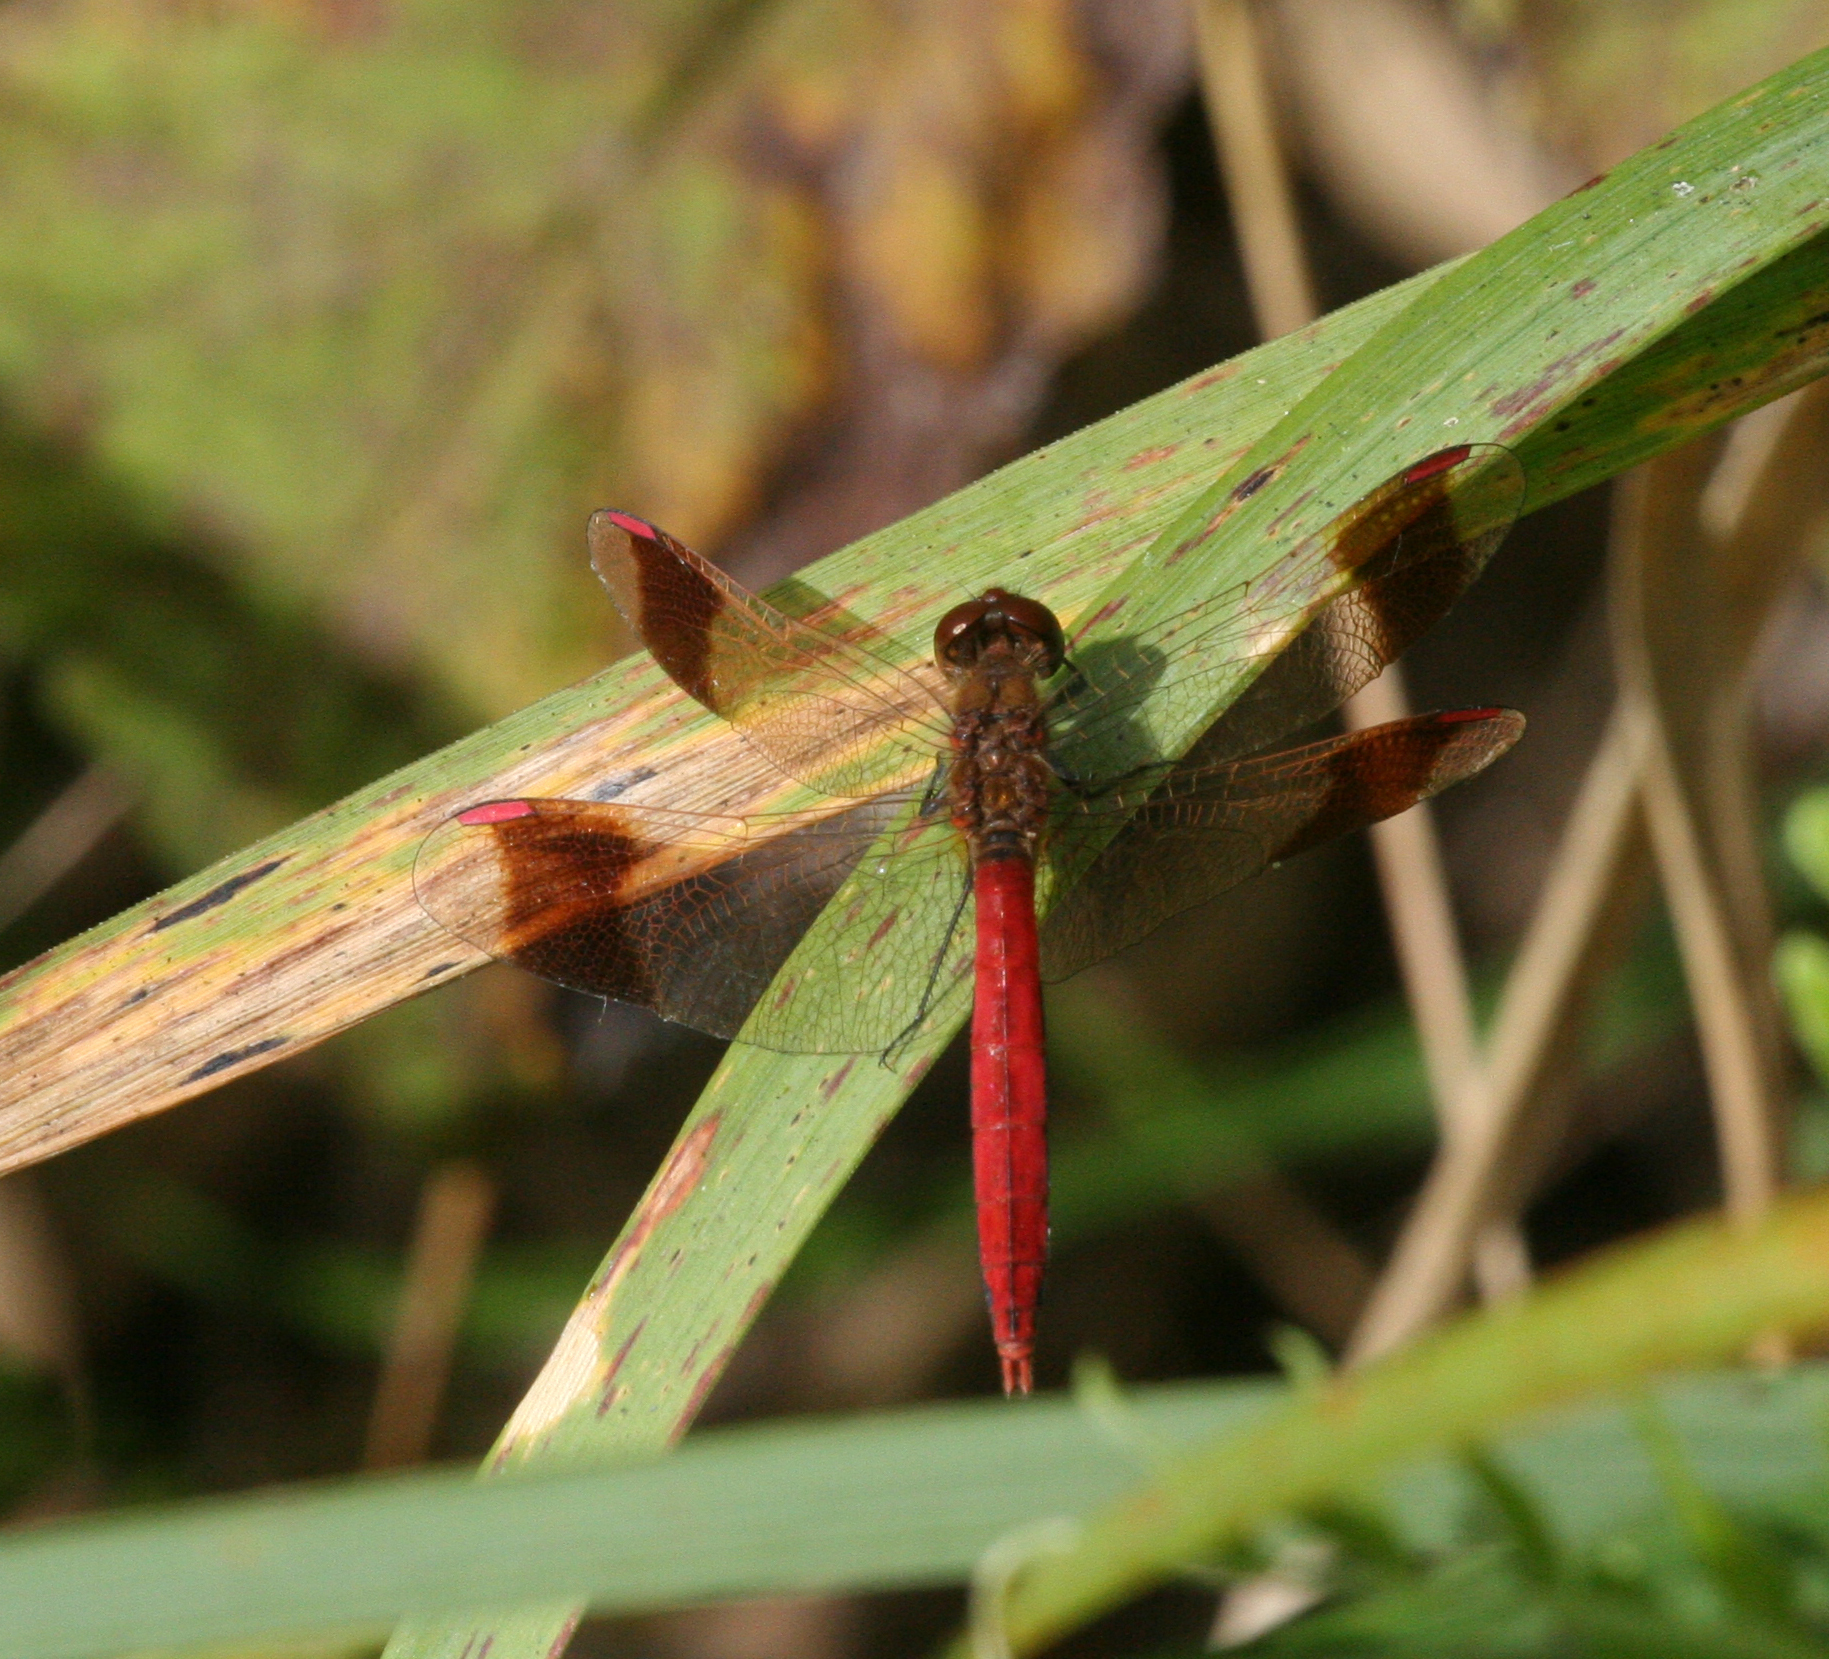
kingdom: Animalia
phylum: Arthropoda
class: Insecta
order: Odonata
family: Libellulidae
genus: Sympetrum
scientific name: Sympetrum pedemontanum
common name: Banded darter
